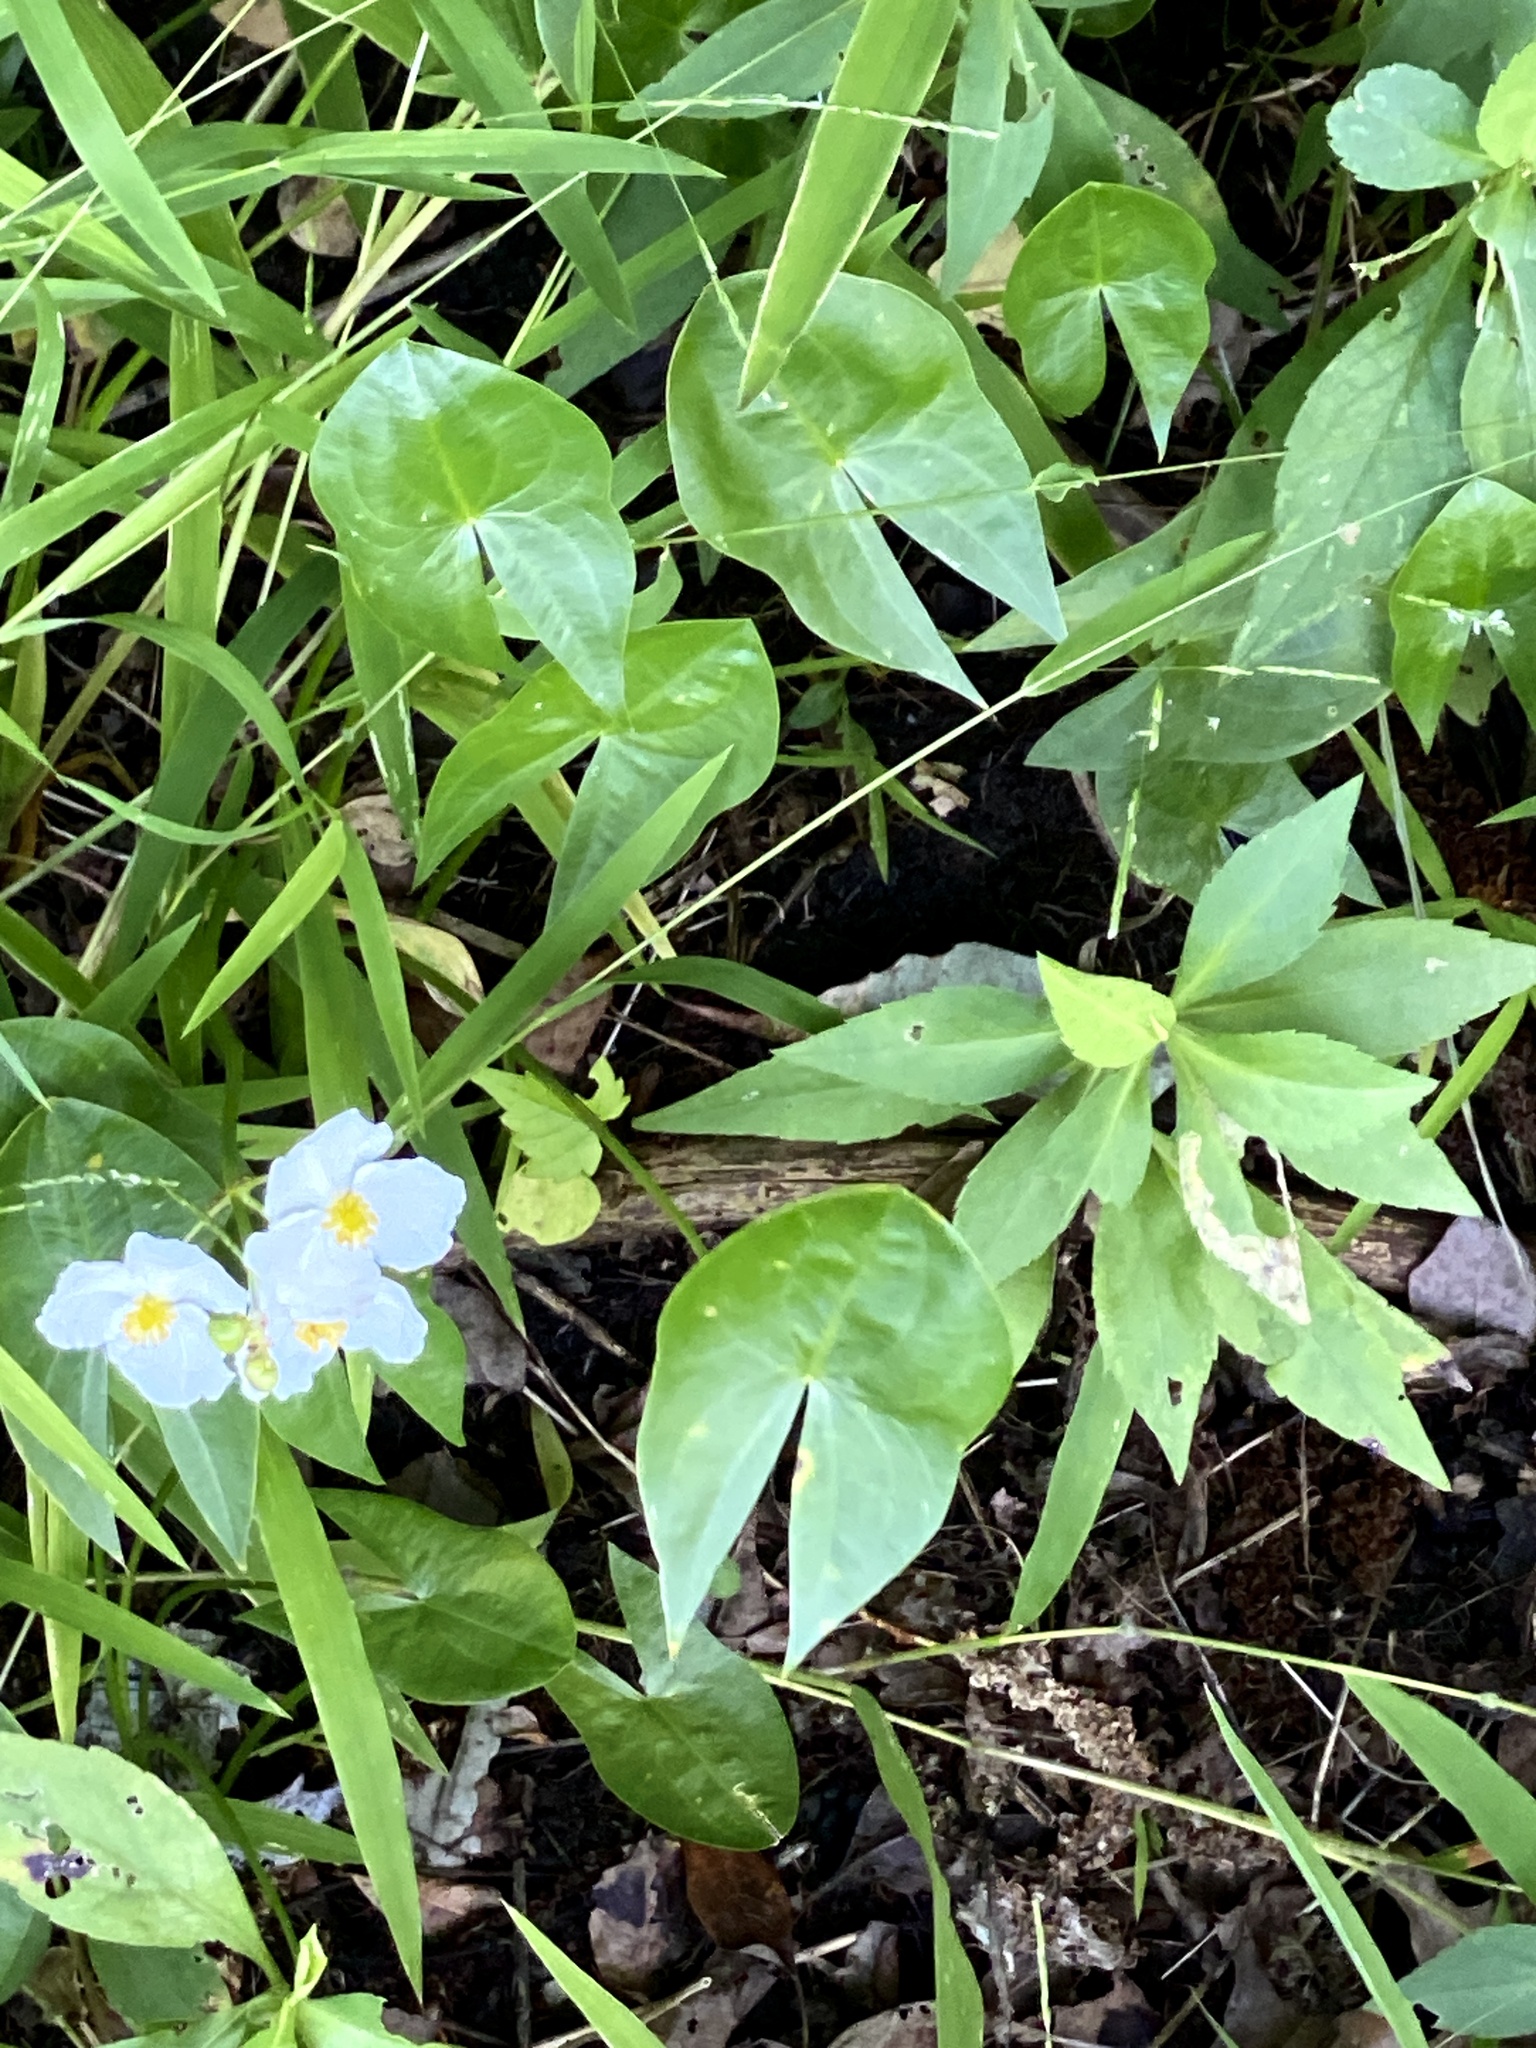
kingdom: Plantae
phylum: Tracheophyta
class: Liliopsida
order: Alismatales
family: Alismataceae
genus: Sagittaria
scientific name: Sagittaria latifolia
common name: Duck-potato
